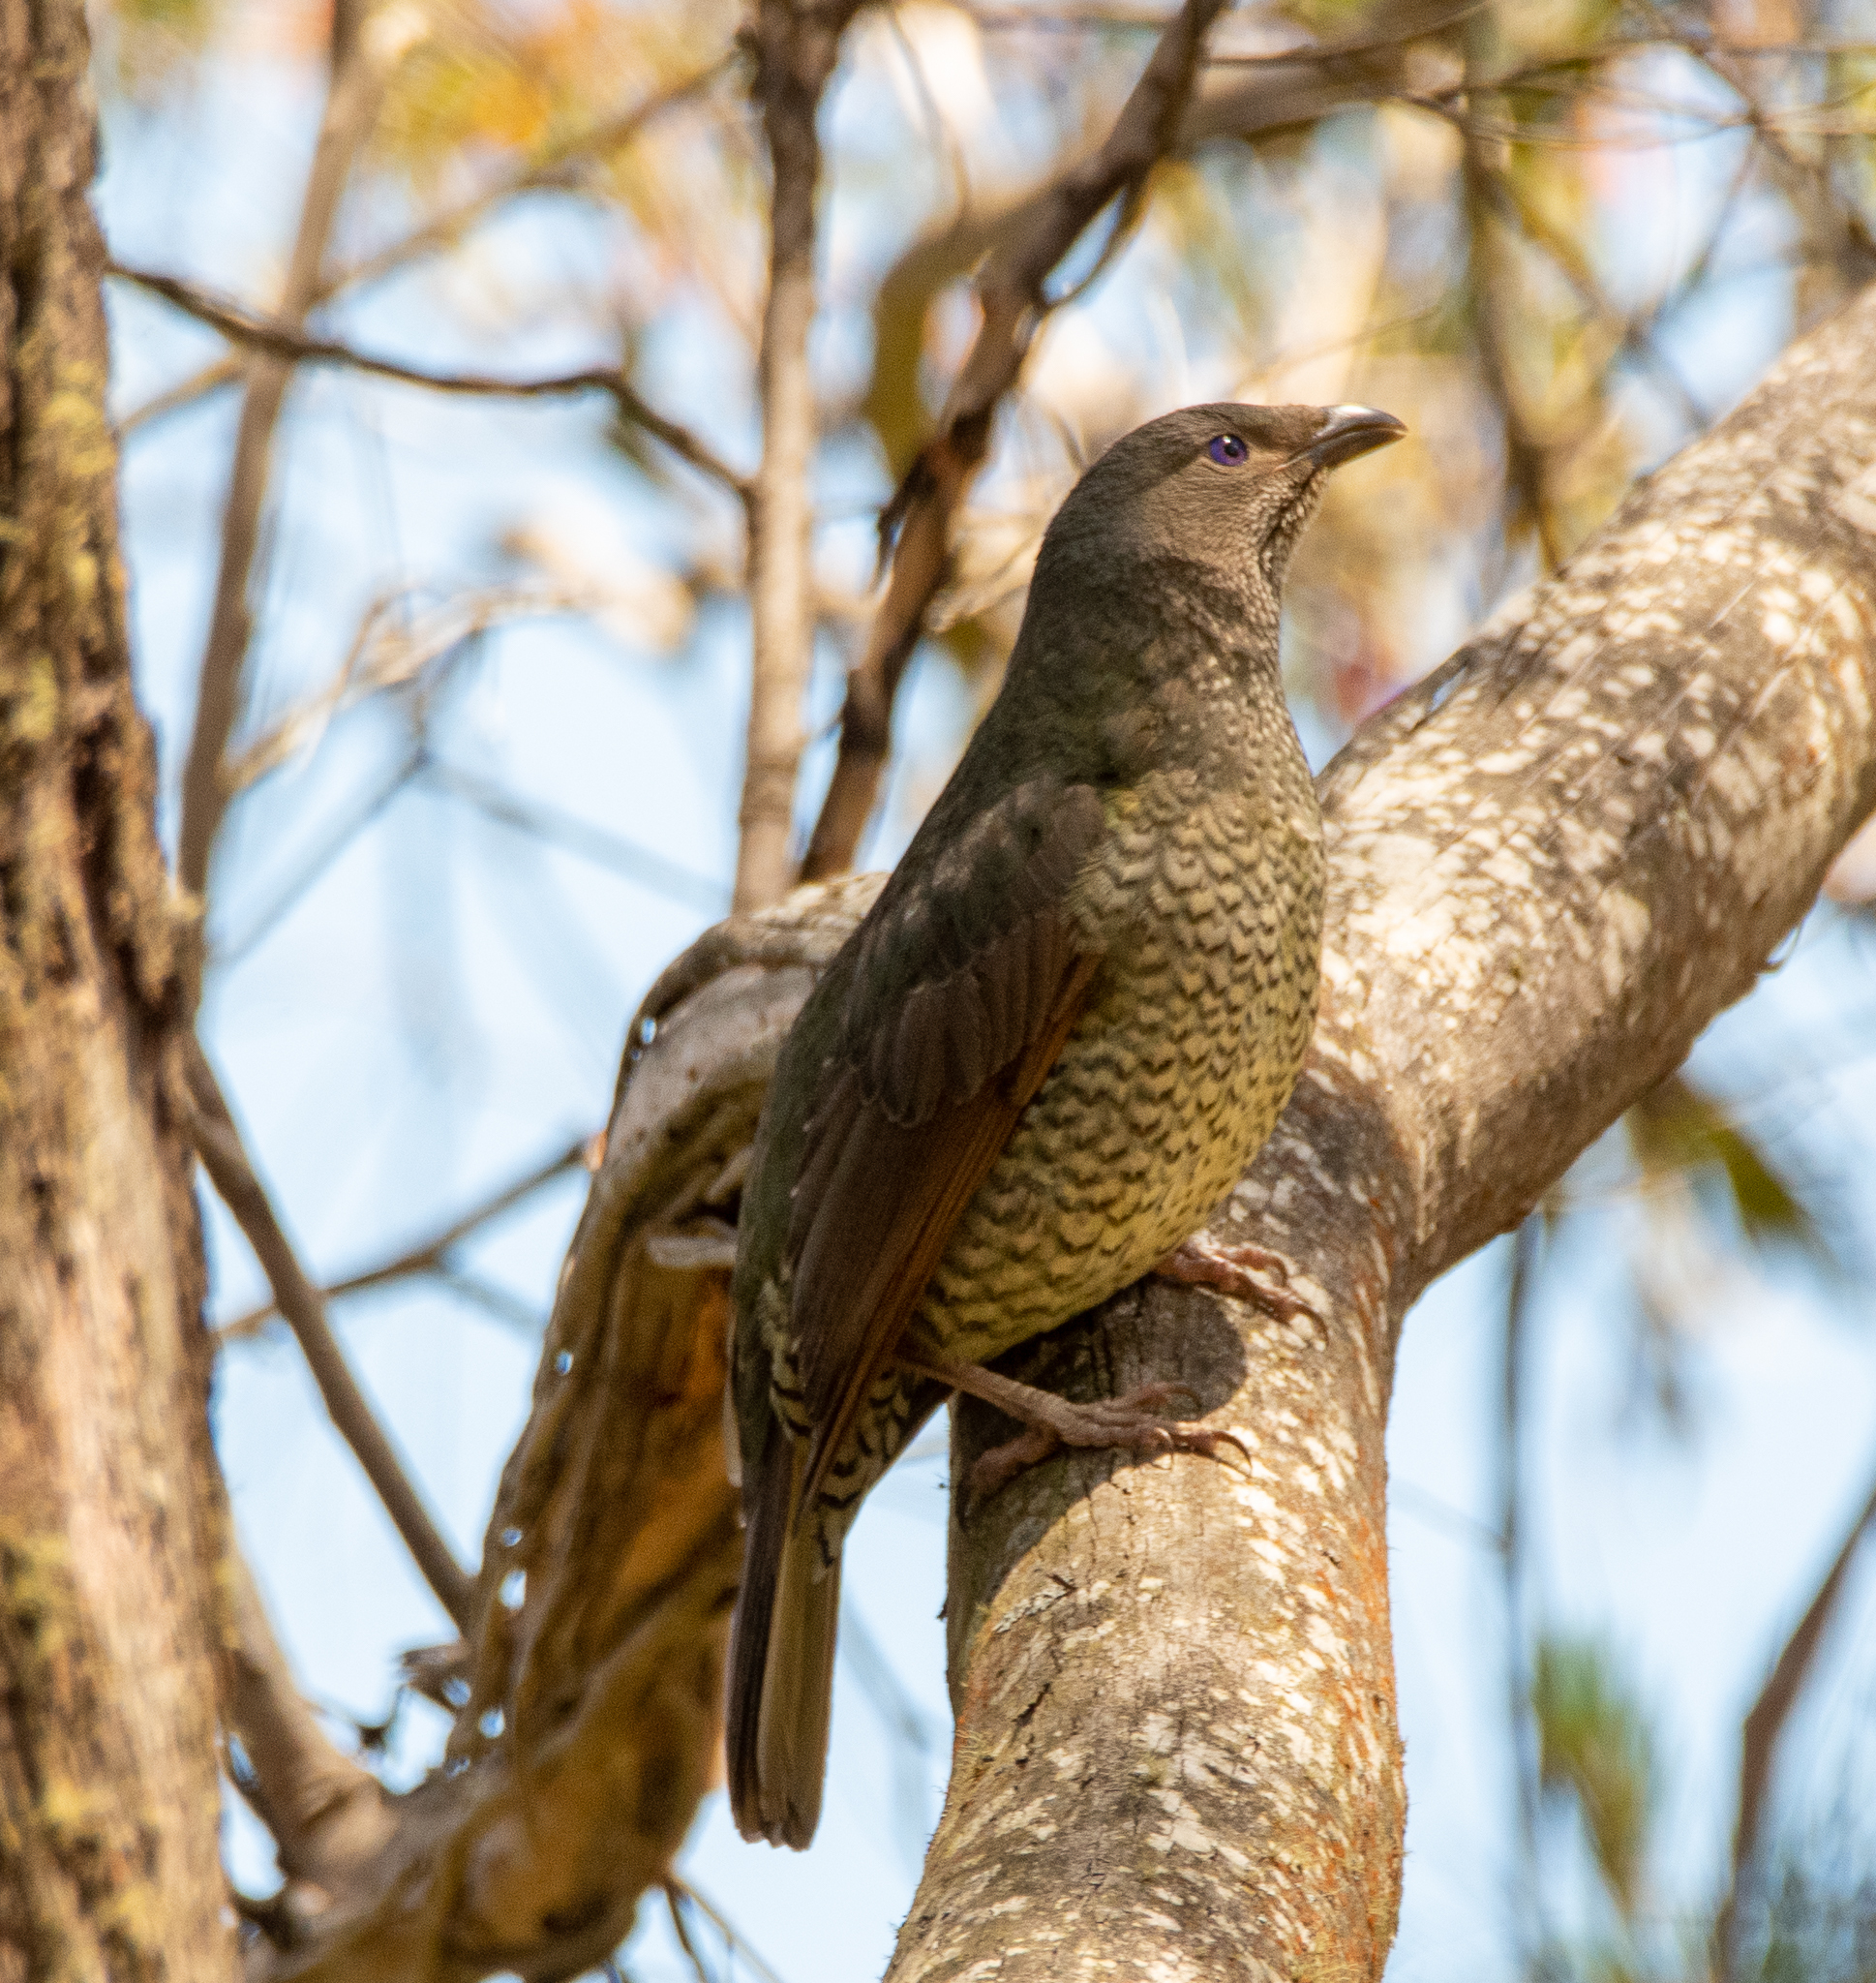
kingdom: Animalia
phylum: Chordata
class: Aves
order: Passeriformes
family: Ptilonorhynchidae
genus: Ptilonorhynchus
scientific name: Ptilonorhynchus violaceus
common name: Satin bowerbird
